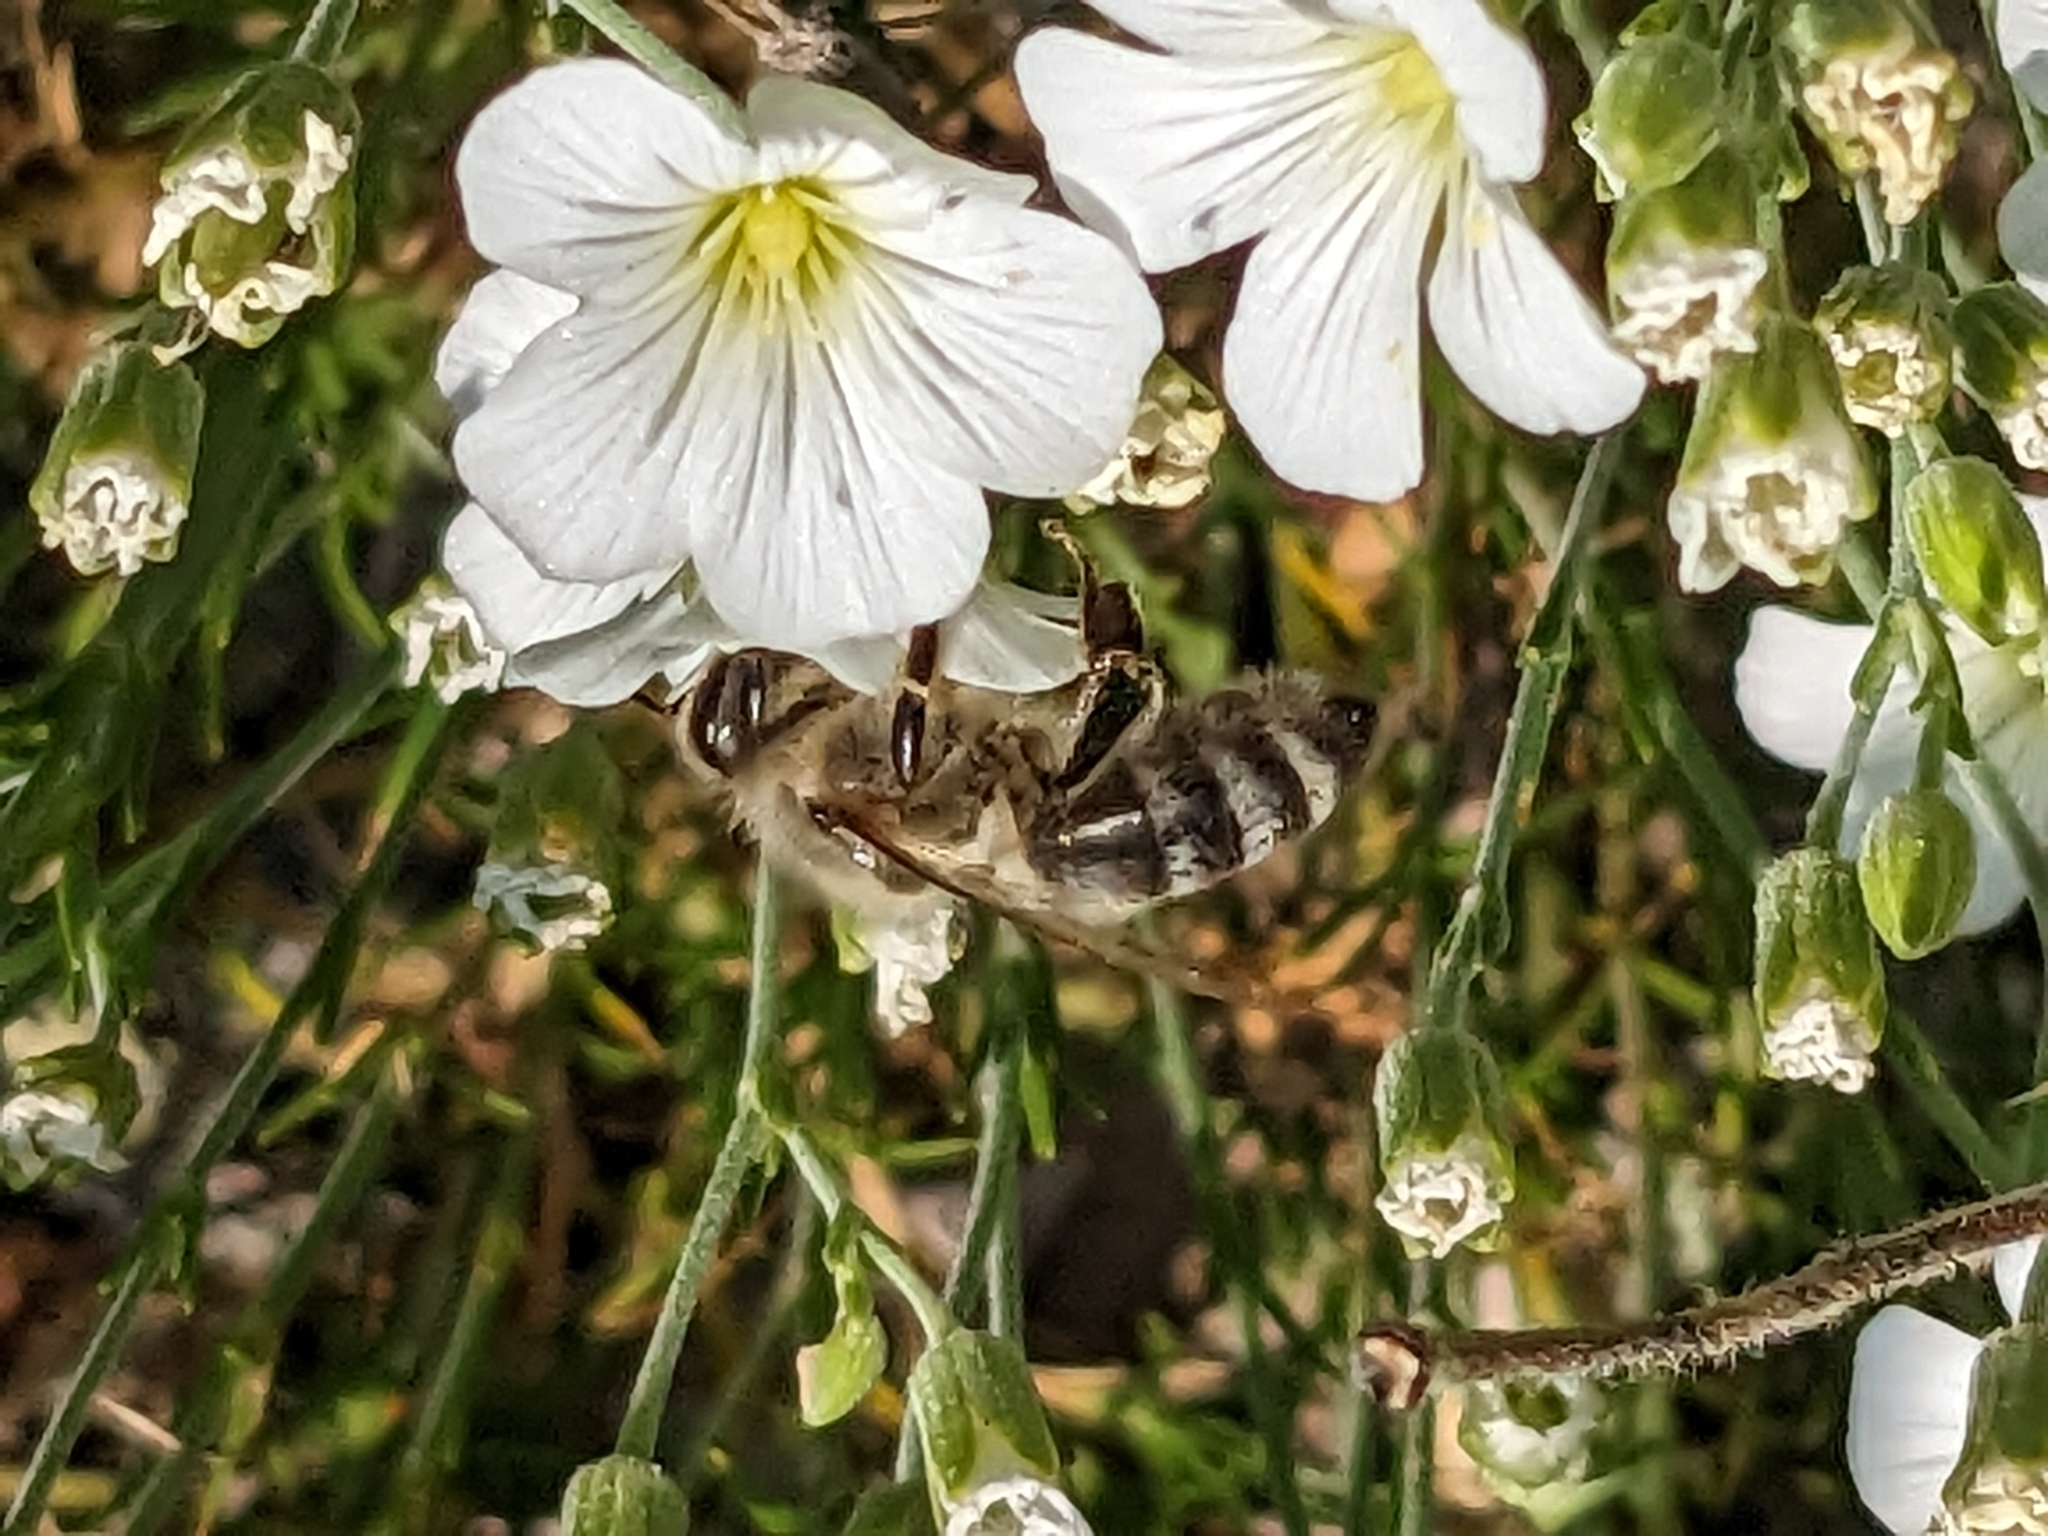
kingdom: Animalia
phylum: Arthropoda
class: Insecta
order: Hymenoptera
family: Apidae
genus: Apis
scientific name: Apis mellifera
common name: Honey bee
